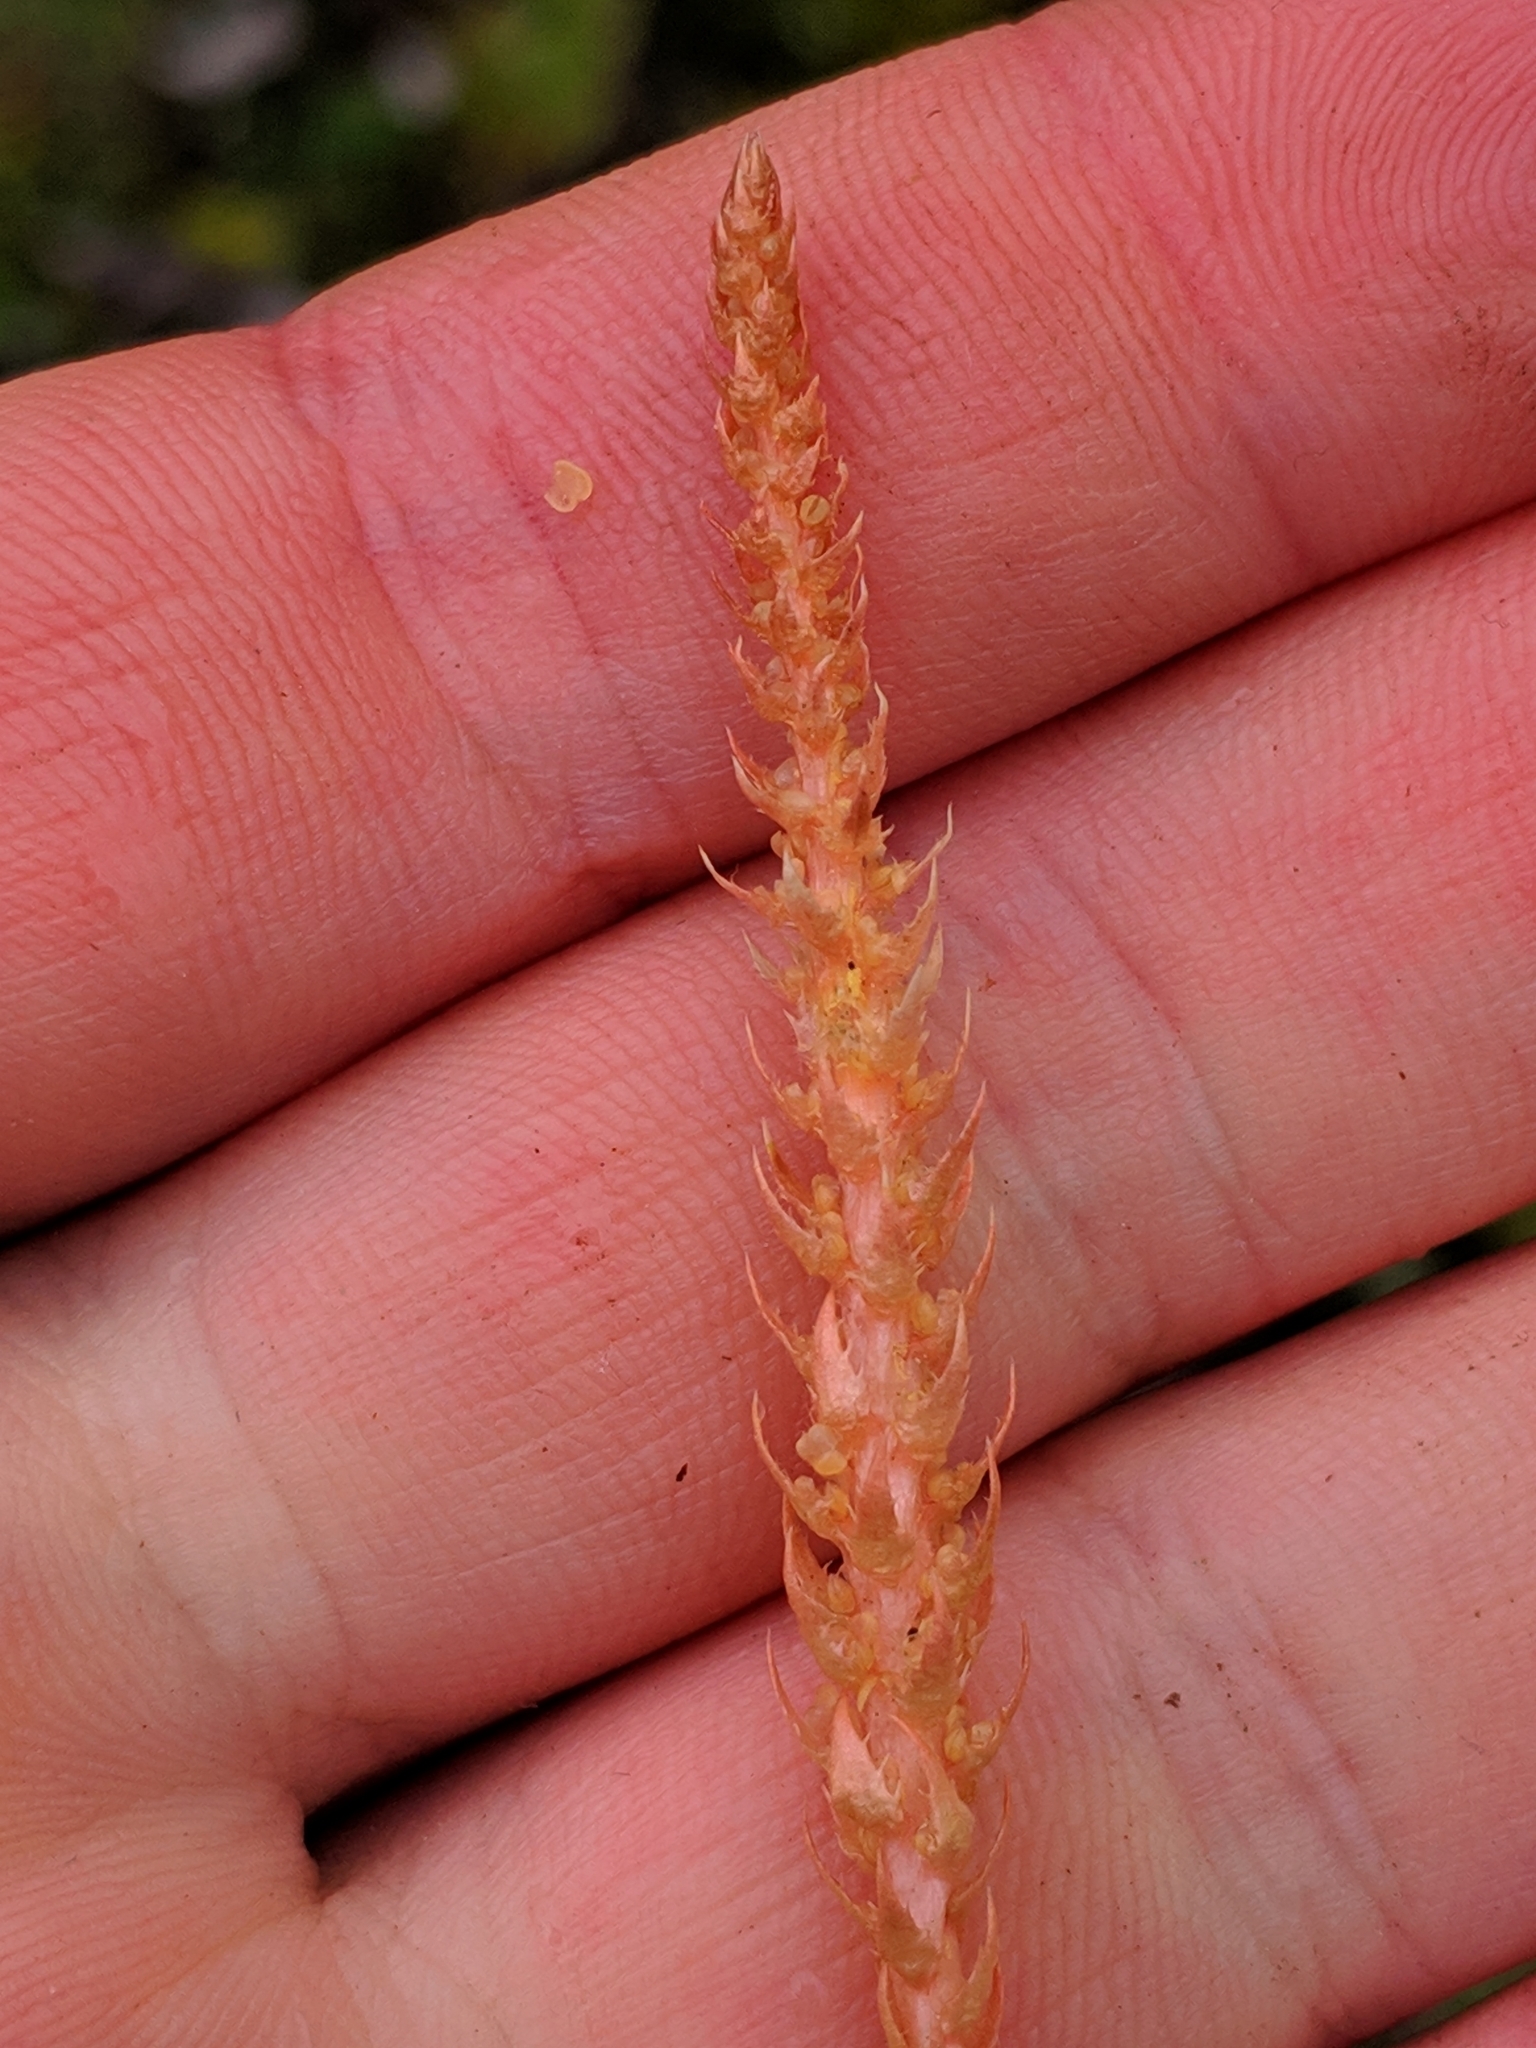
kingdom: Plantae
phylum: Tracheophyta
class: Lycopodiopsida
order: Selaginellales
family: Selaginellaceae
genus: Selaginella
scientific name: Selaginella selaginoides
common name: Prickly mountain-moss
